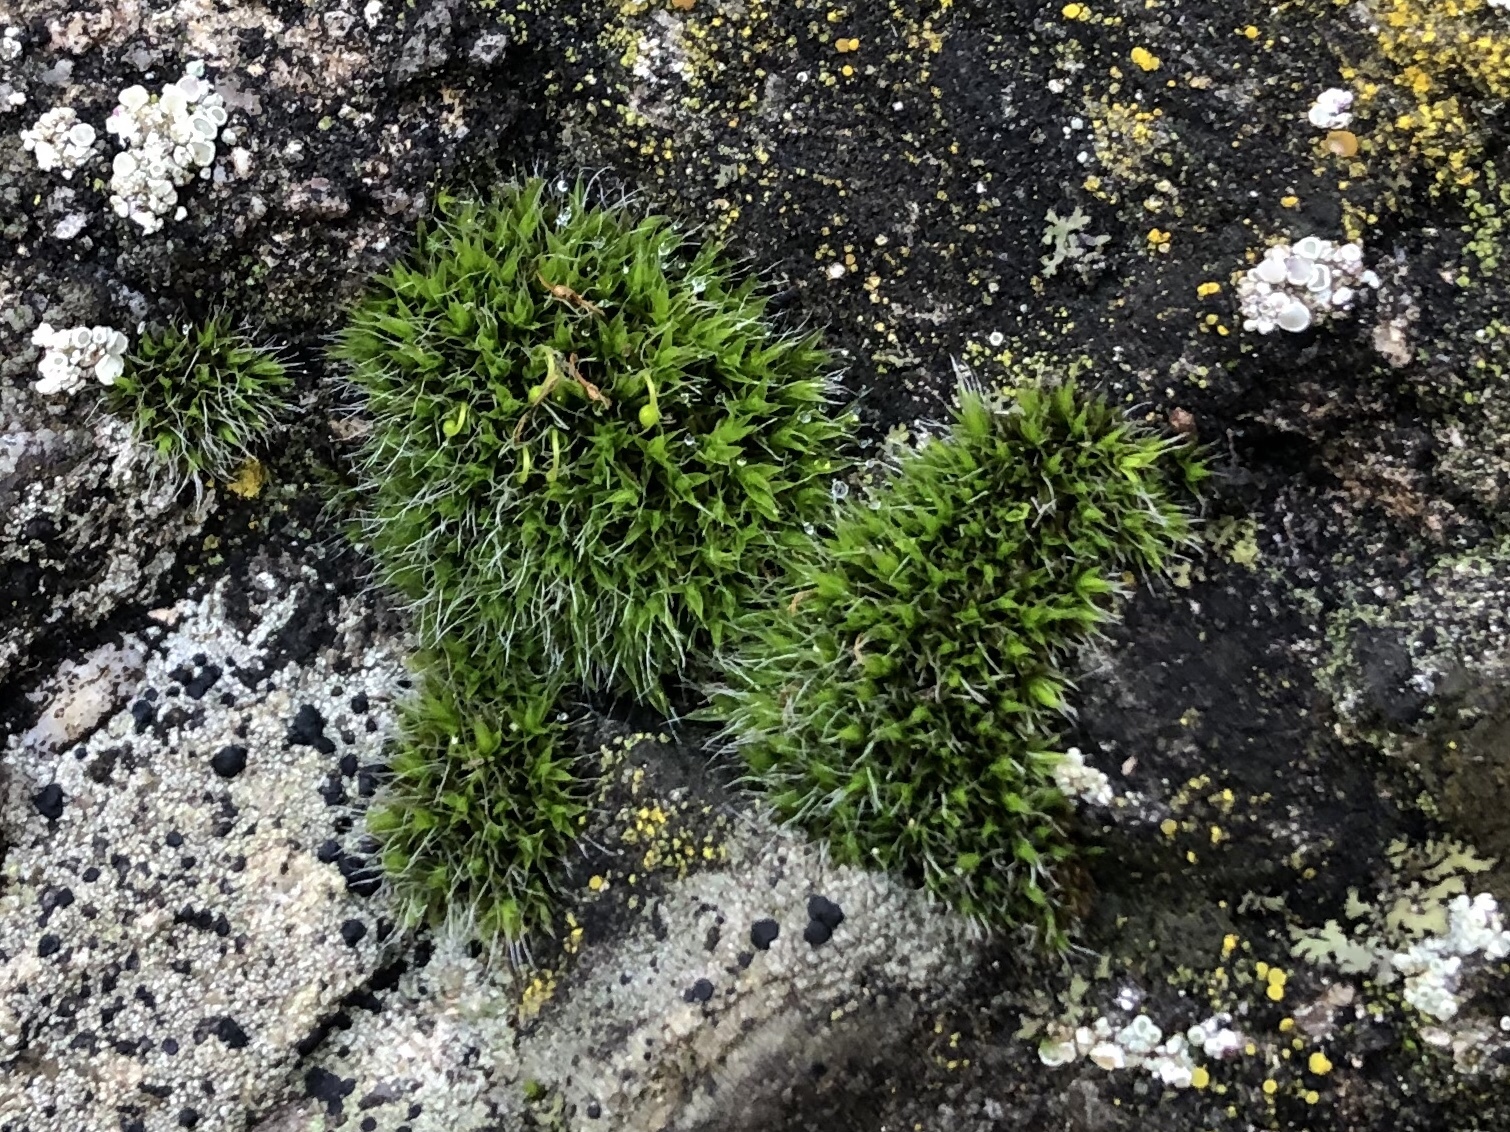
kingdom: Plantae
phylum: Bryophyta
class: Bryopsida
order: Grimmiales
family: Grimmiaceae
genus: Grimmia
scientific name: Grimmia pulvinata
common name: Grey-cushioned grimmia
